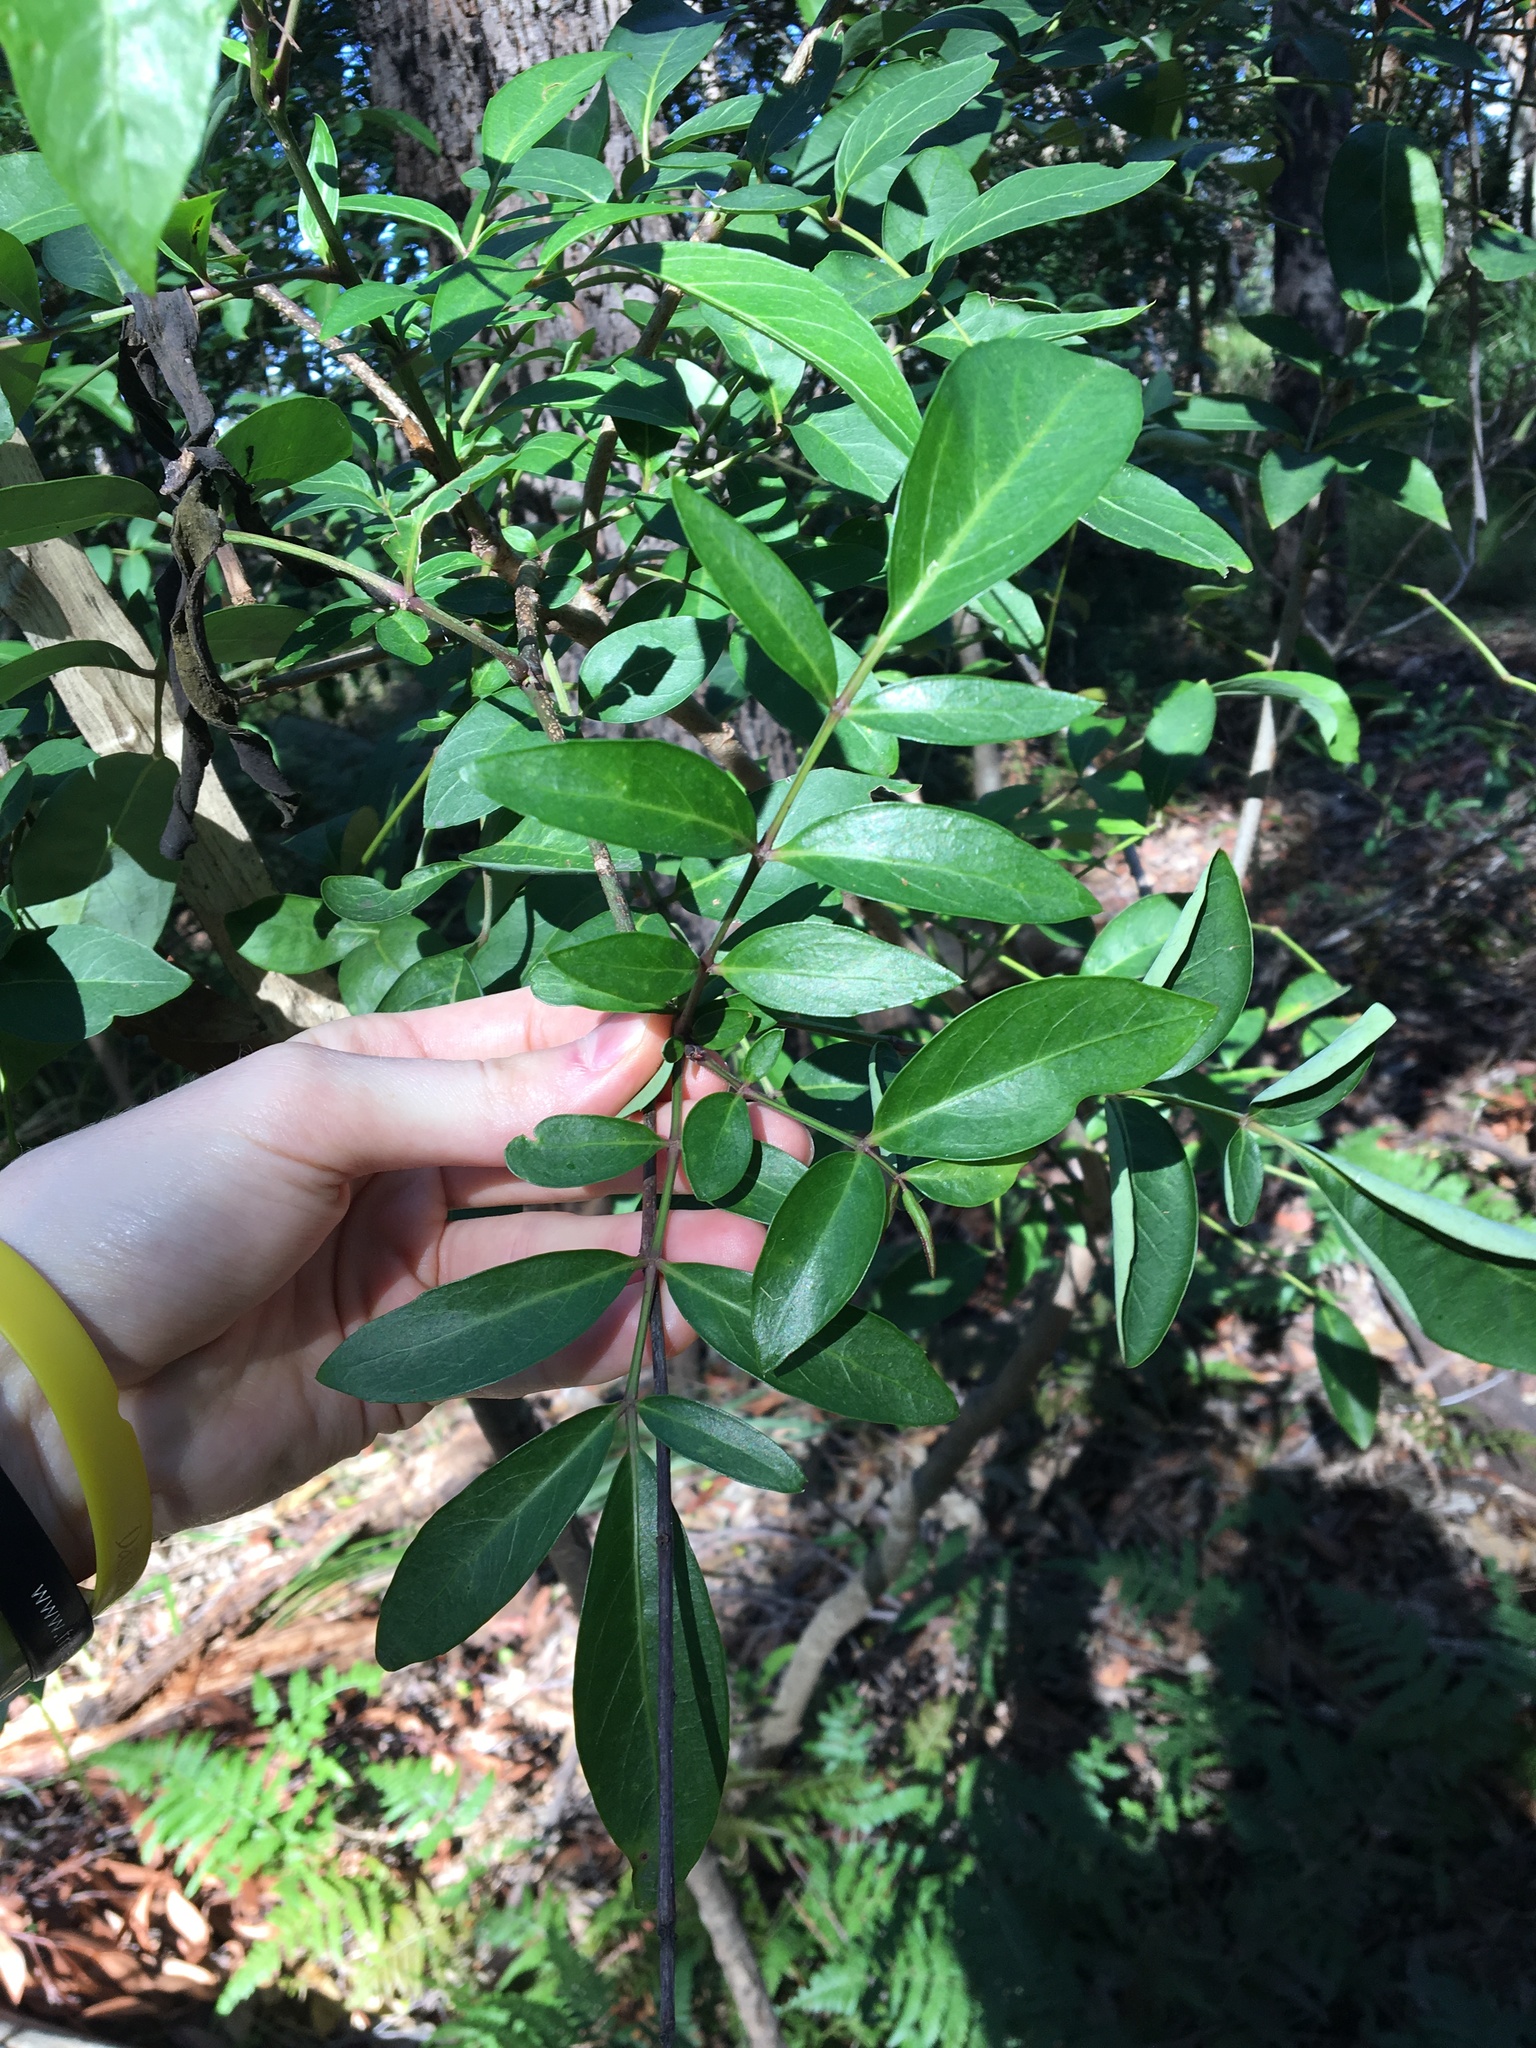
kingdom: Plantae
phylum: Tracheophyta
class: Magnoliopsida
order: Apiales
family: Araliaceae
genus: Polyscias
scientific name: Polyscias sambucifolia
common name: Elderberry-ash
